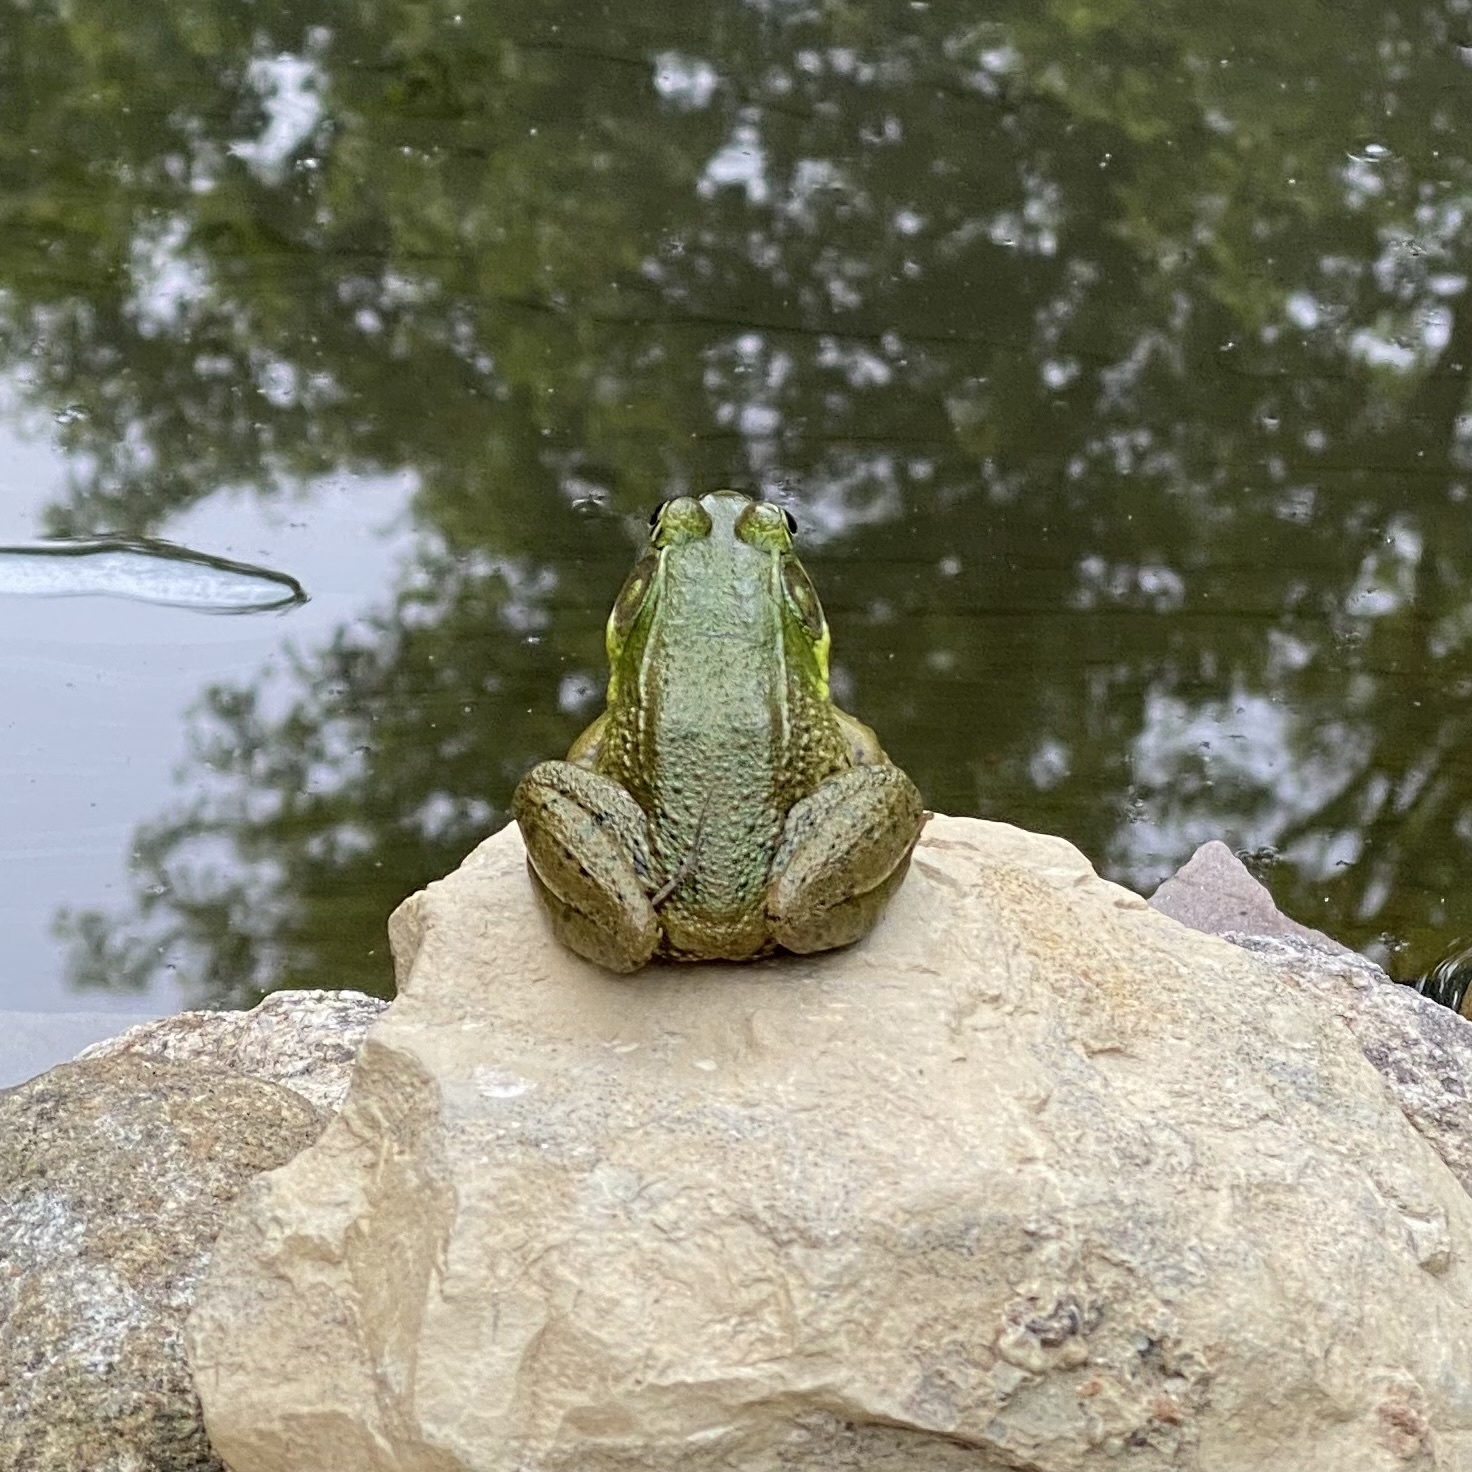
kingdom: Animalia
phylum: Chordata
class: Amphibia
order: Anura
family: Ranidae
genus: Lithobates
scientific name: Lithobates clamitans
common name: Green frog
